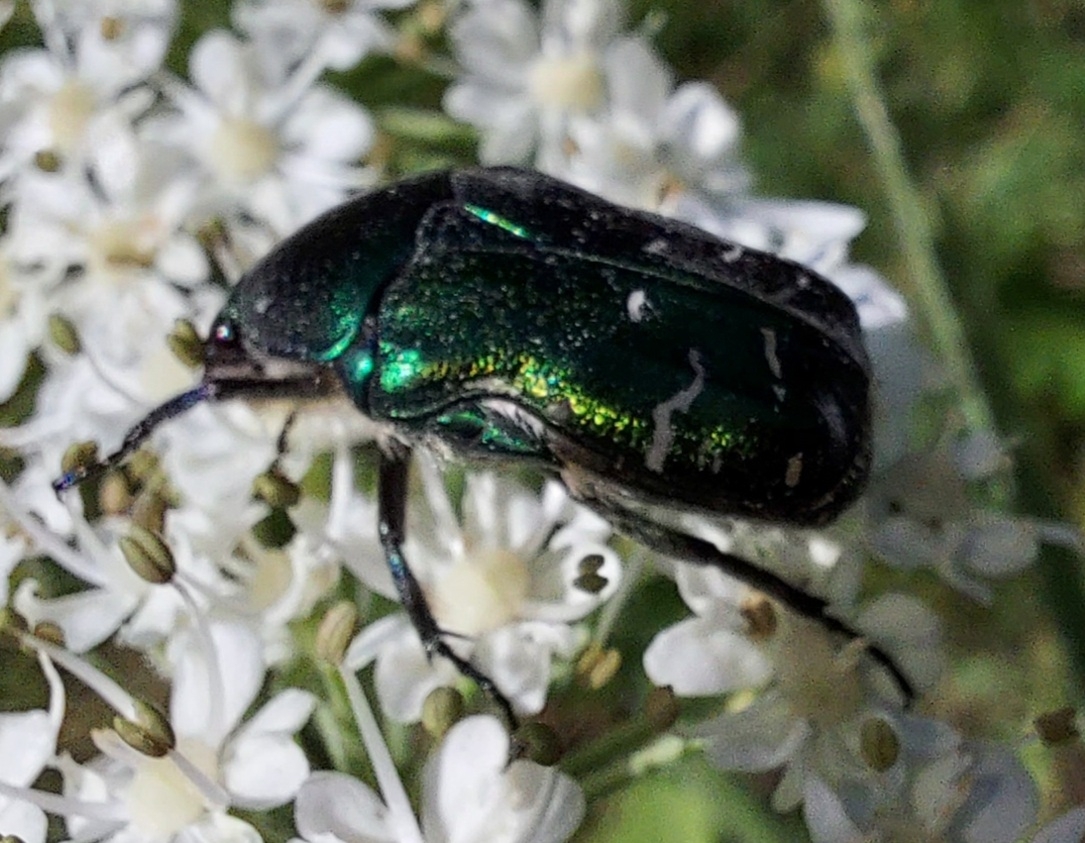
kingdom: Animalia
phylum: Arthropoda
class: Insecta
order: Coleoptera
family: Scarabaeidae
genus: Cetonia
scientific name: Cetonia aurata
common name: Rose chafer
